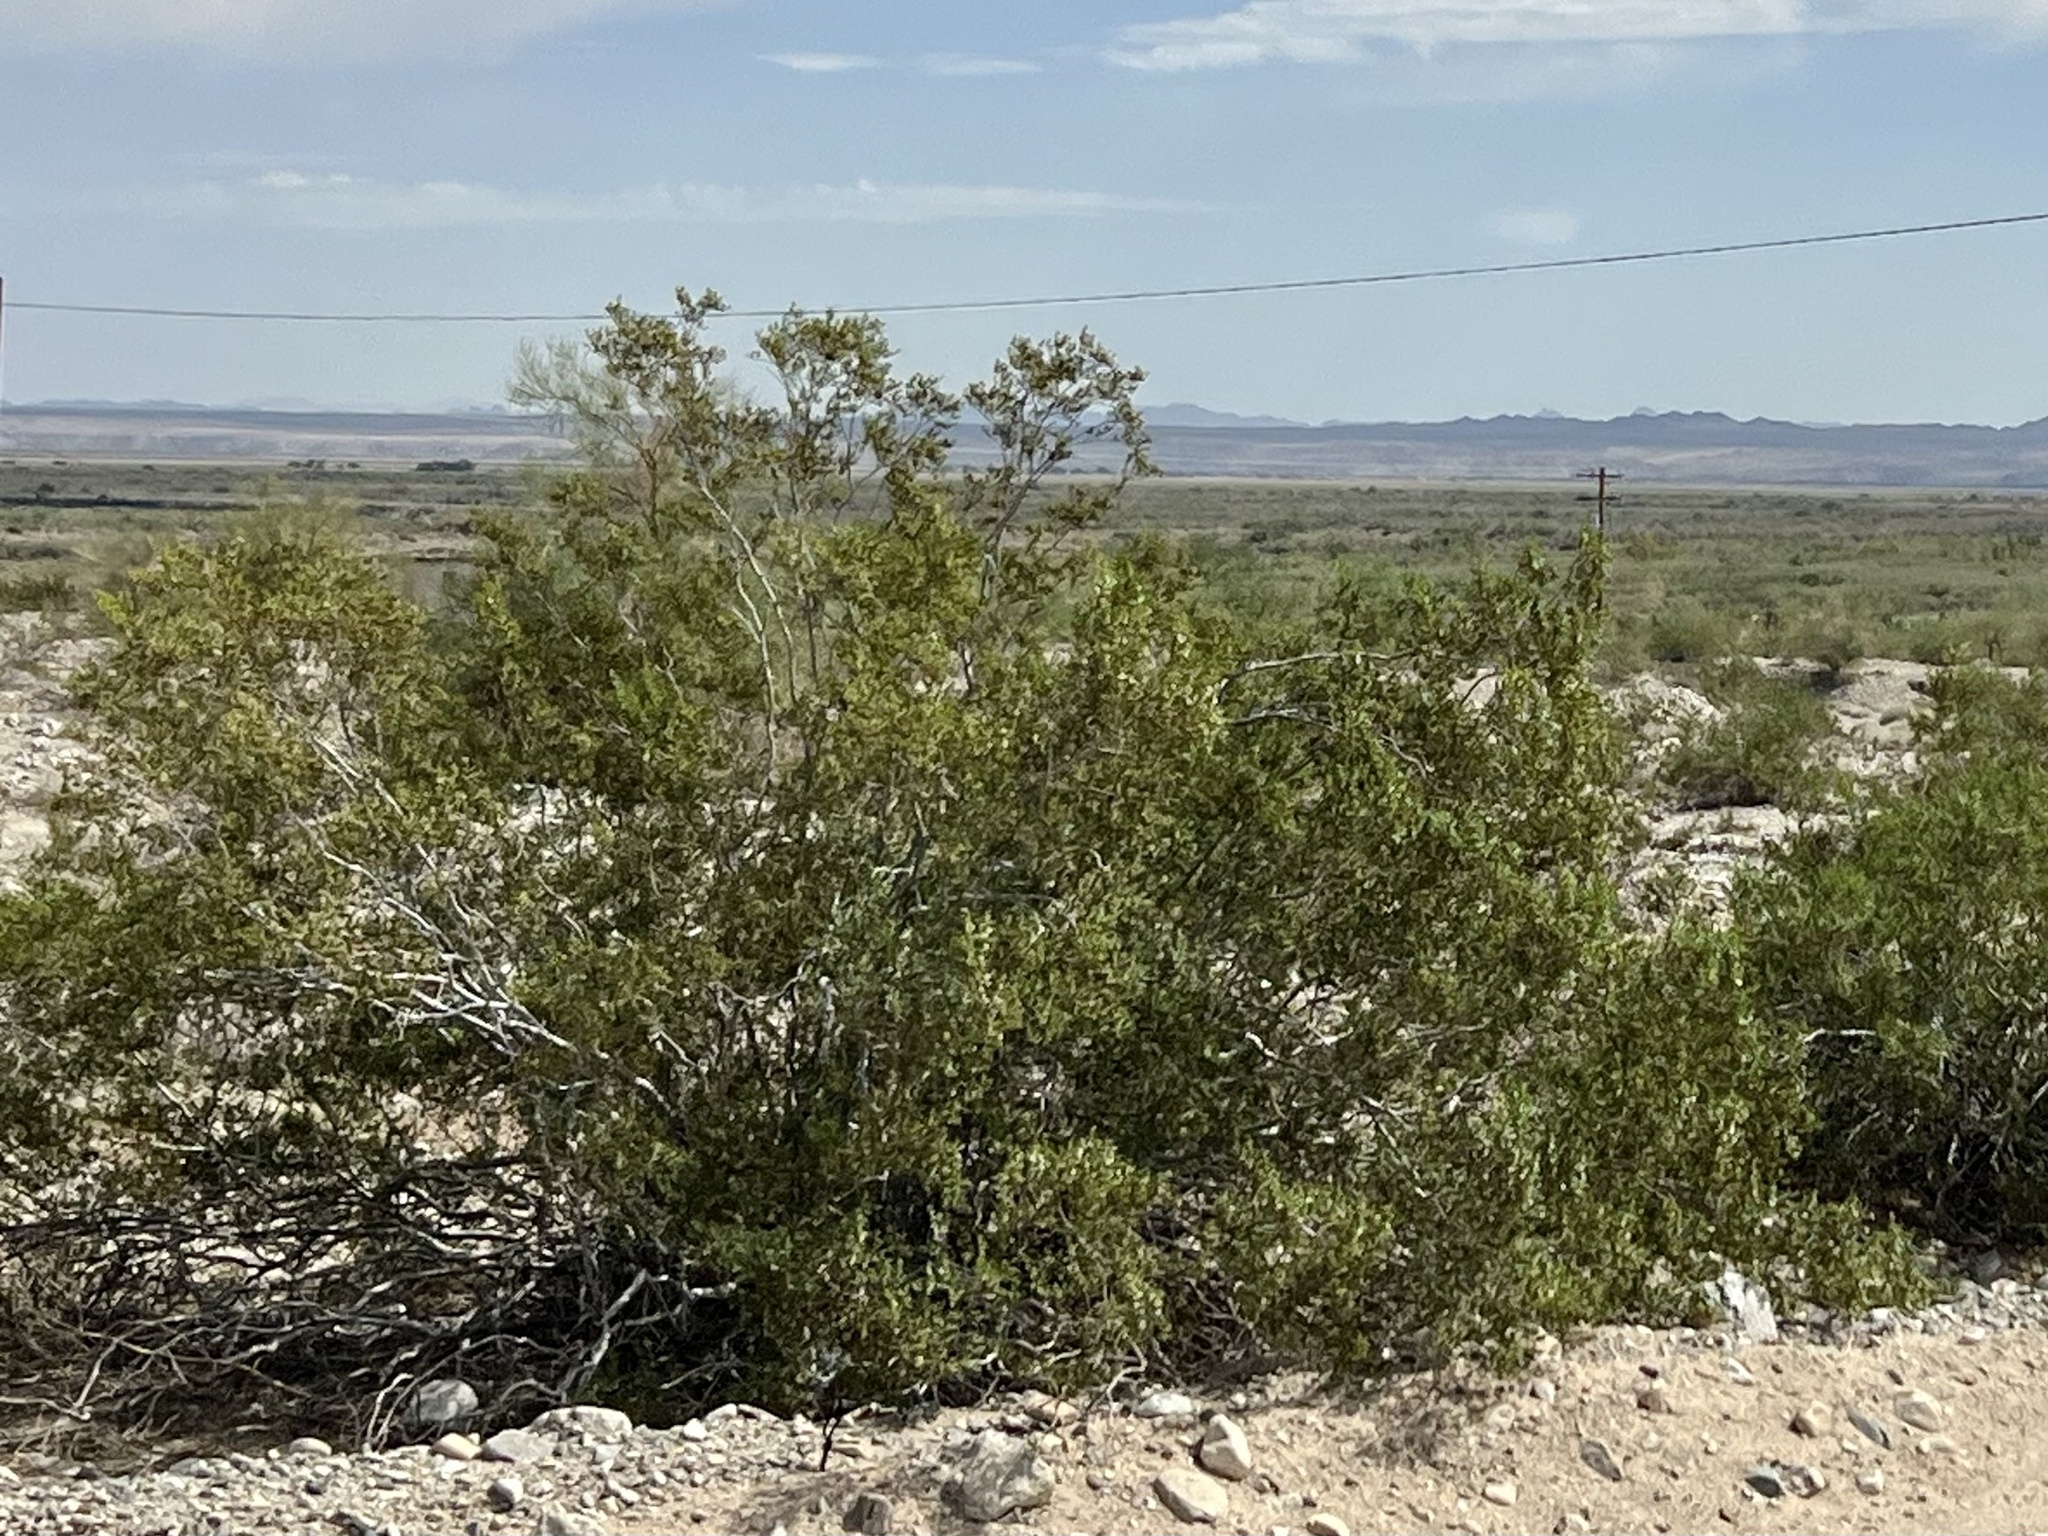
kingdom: Plantae
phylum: Tracheophyta
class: Magnoliopsida
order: Zygophyllales
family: Zygophyllaceae
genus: Larrea
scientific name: Larrea tridentata
